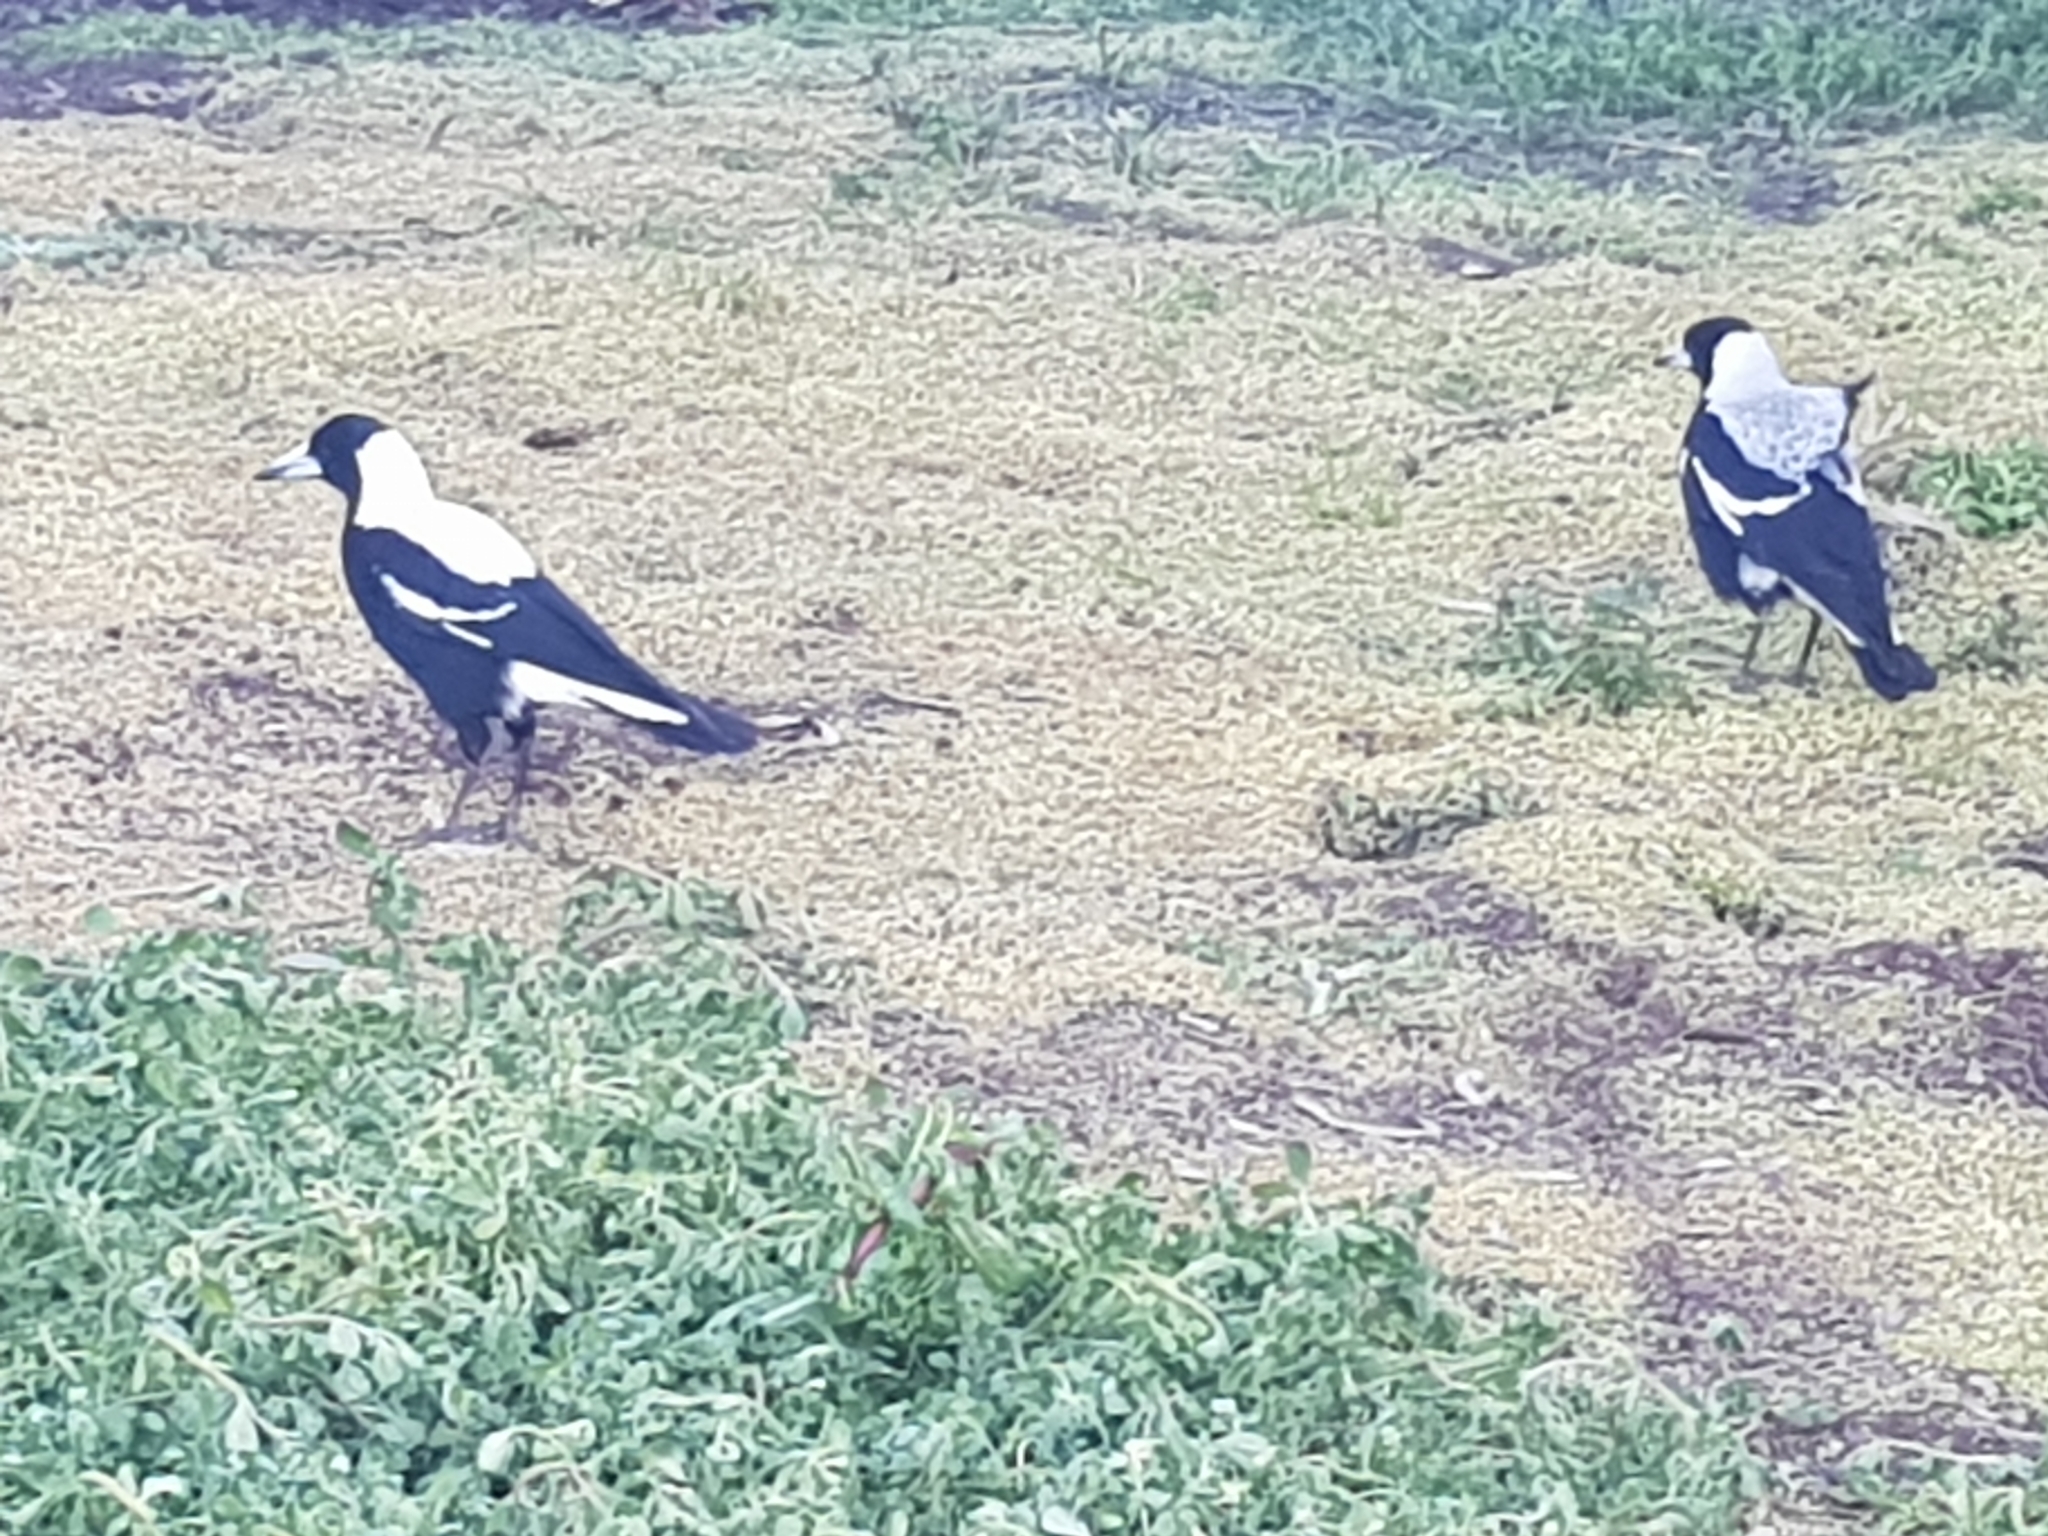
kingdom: Animalia
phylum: Chordata
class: Aves
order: Passeriformes
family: Cracticidae
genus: Gymnorhina
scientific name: Gymnorhina tibicen
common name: Australian magpie
